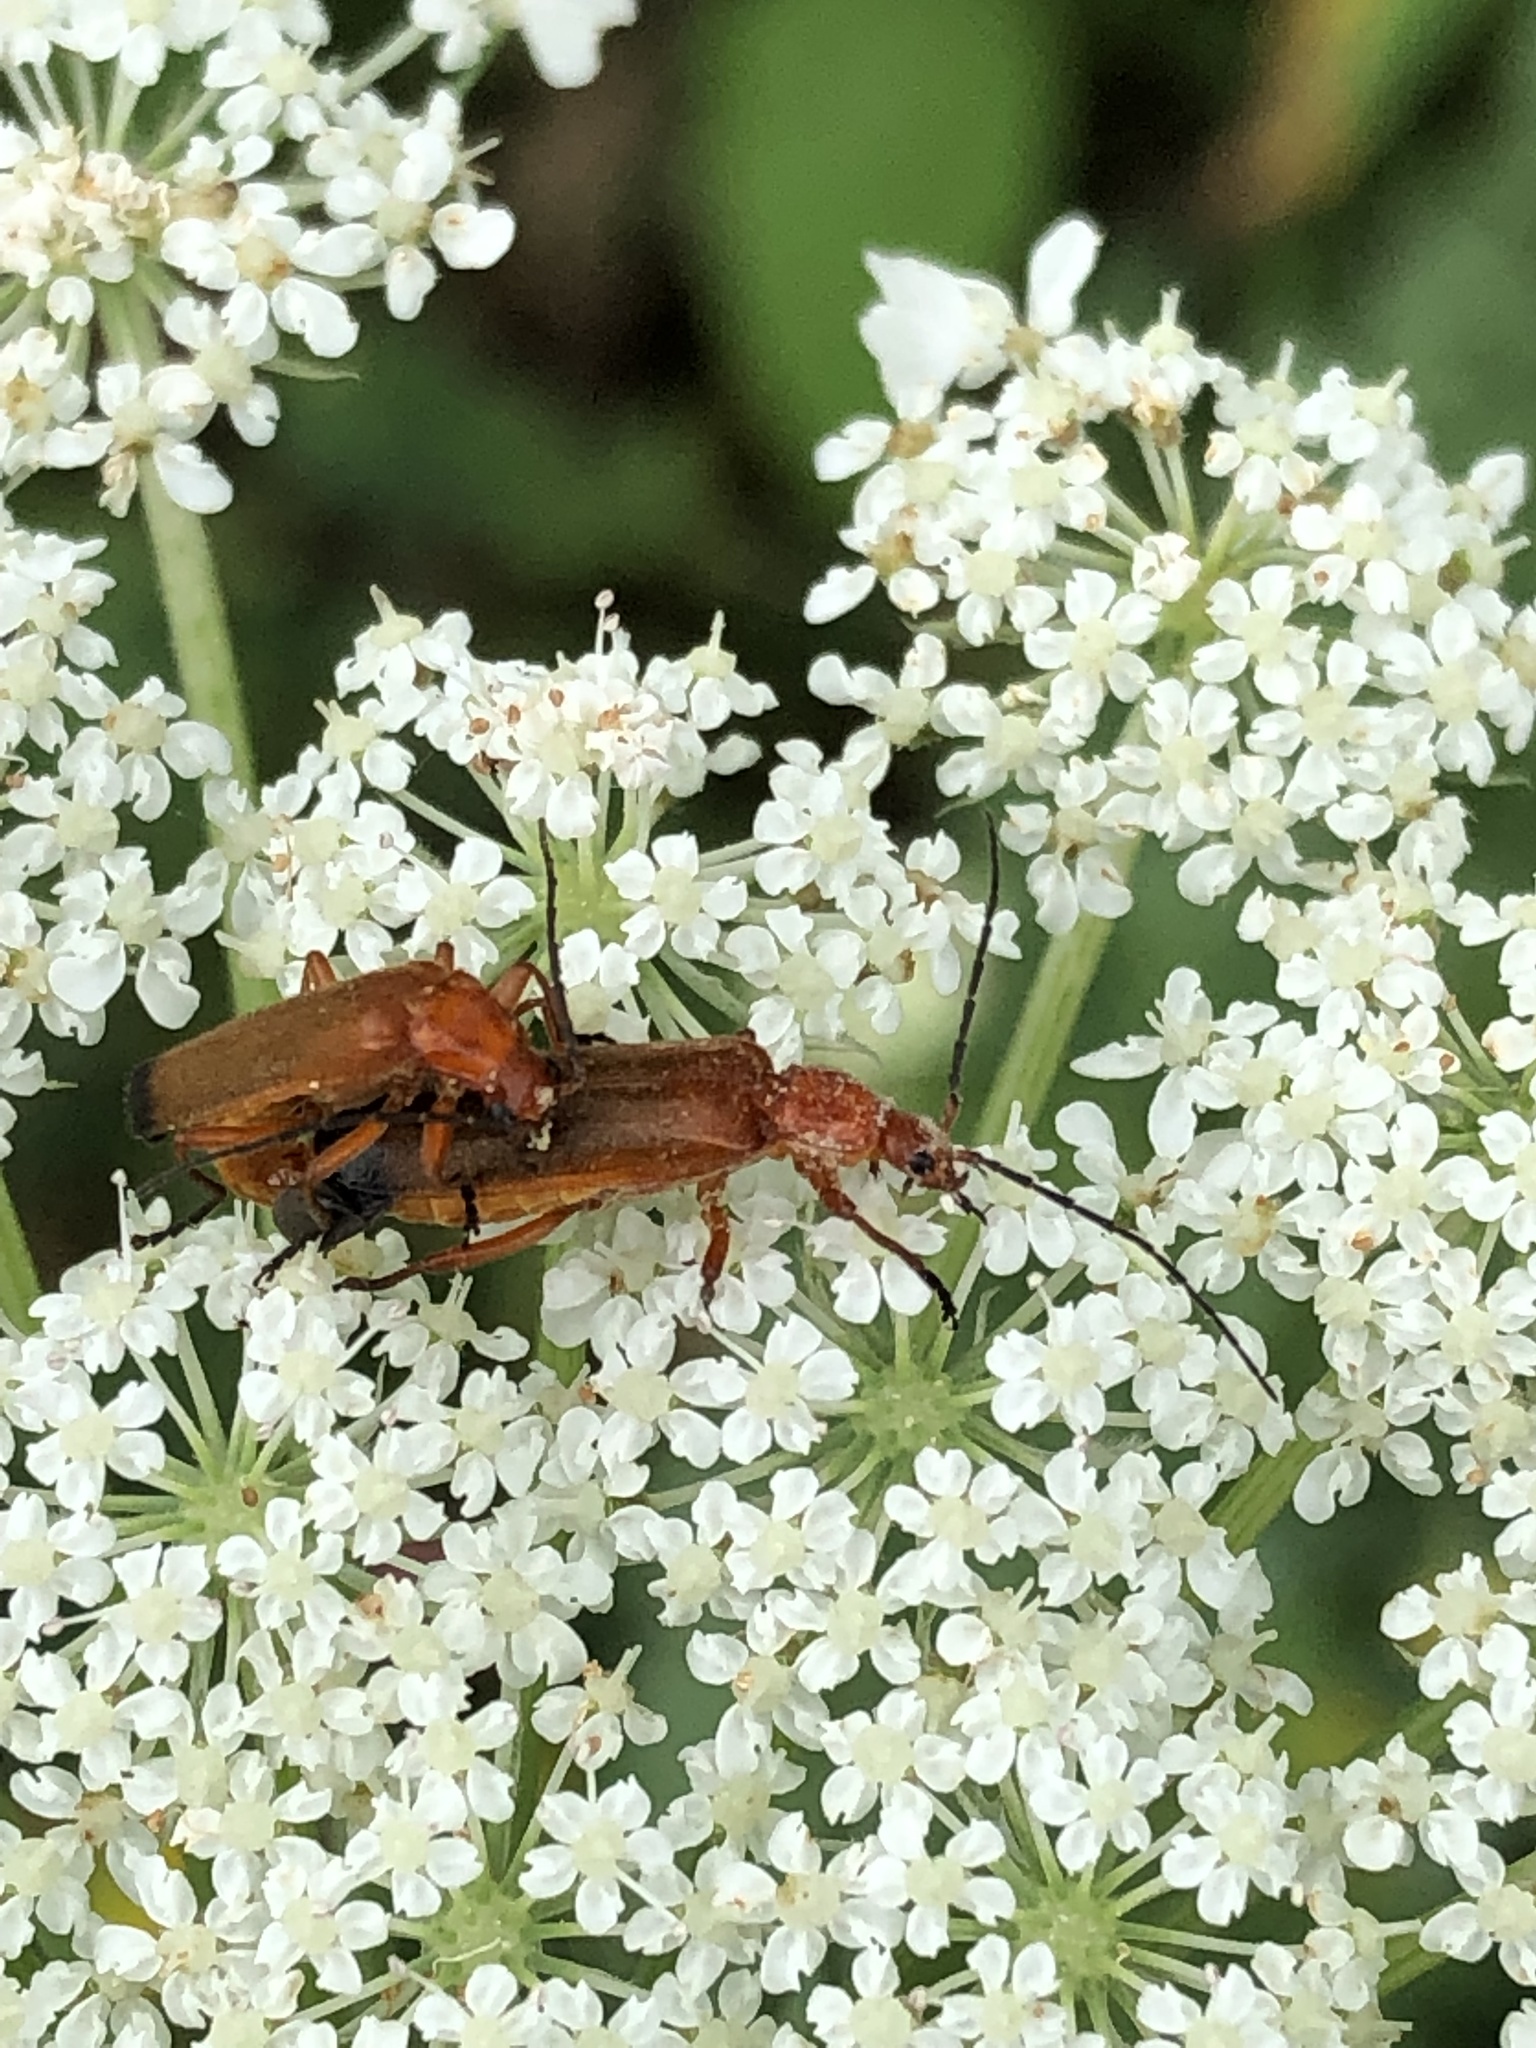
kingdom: Animalia
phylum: Arthropoda
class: Insecta
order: Coleoptera
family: Cantharidae
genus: Rhagonycha
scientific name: Rhagonycha fulva
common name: Common red soldier beetle
